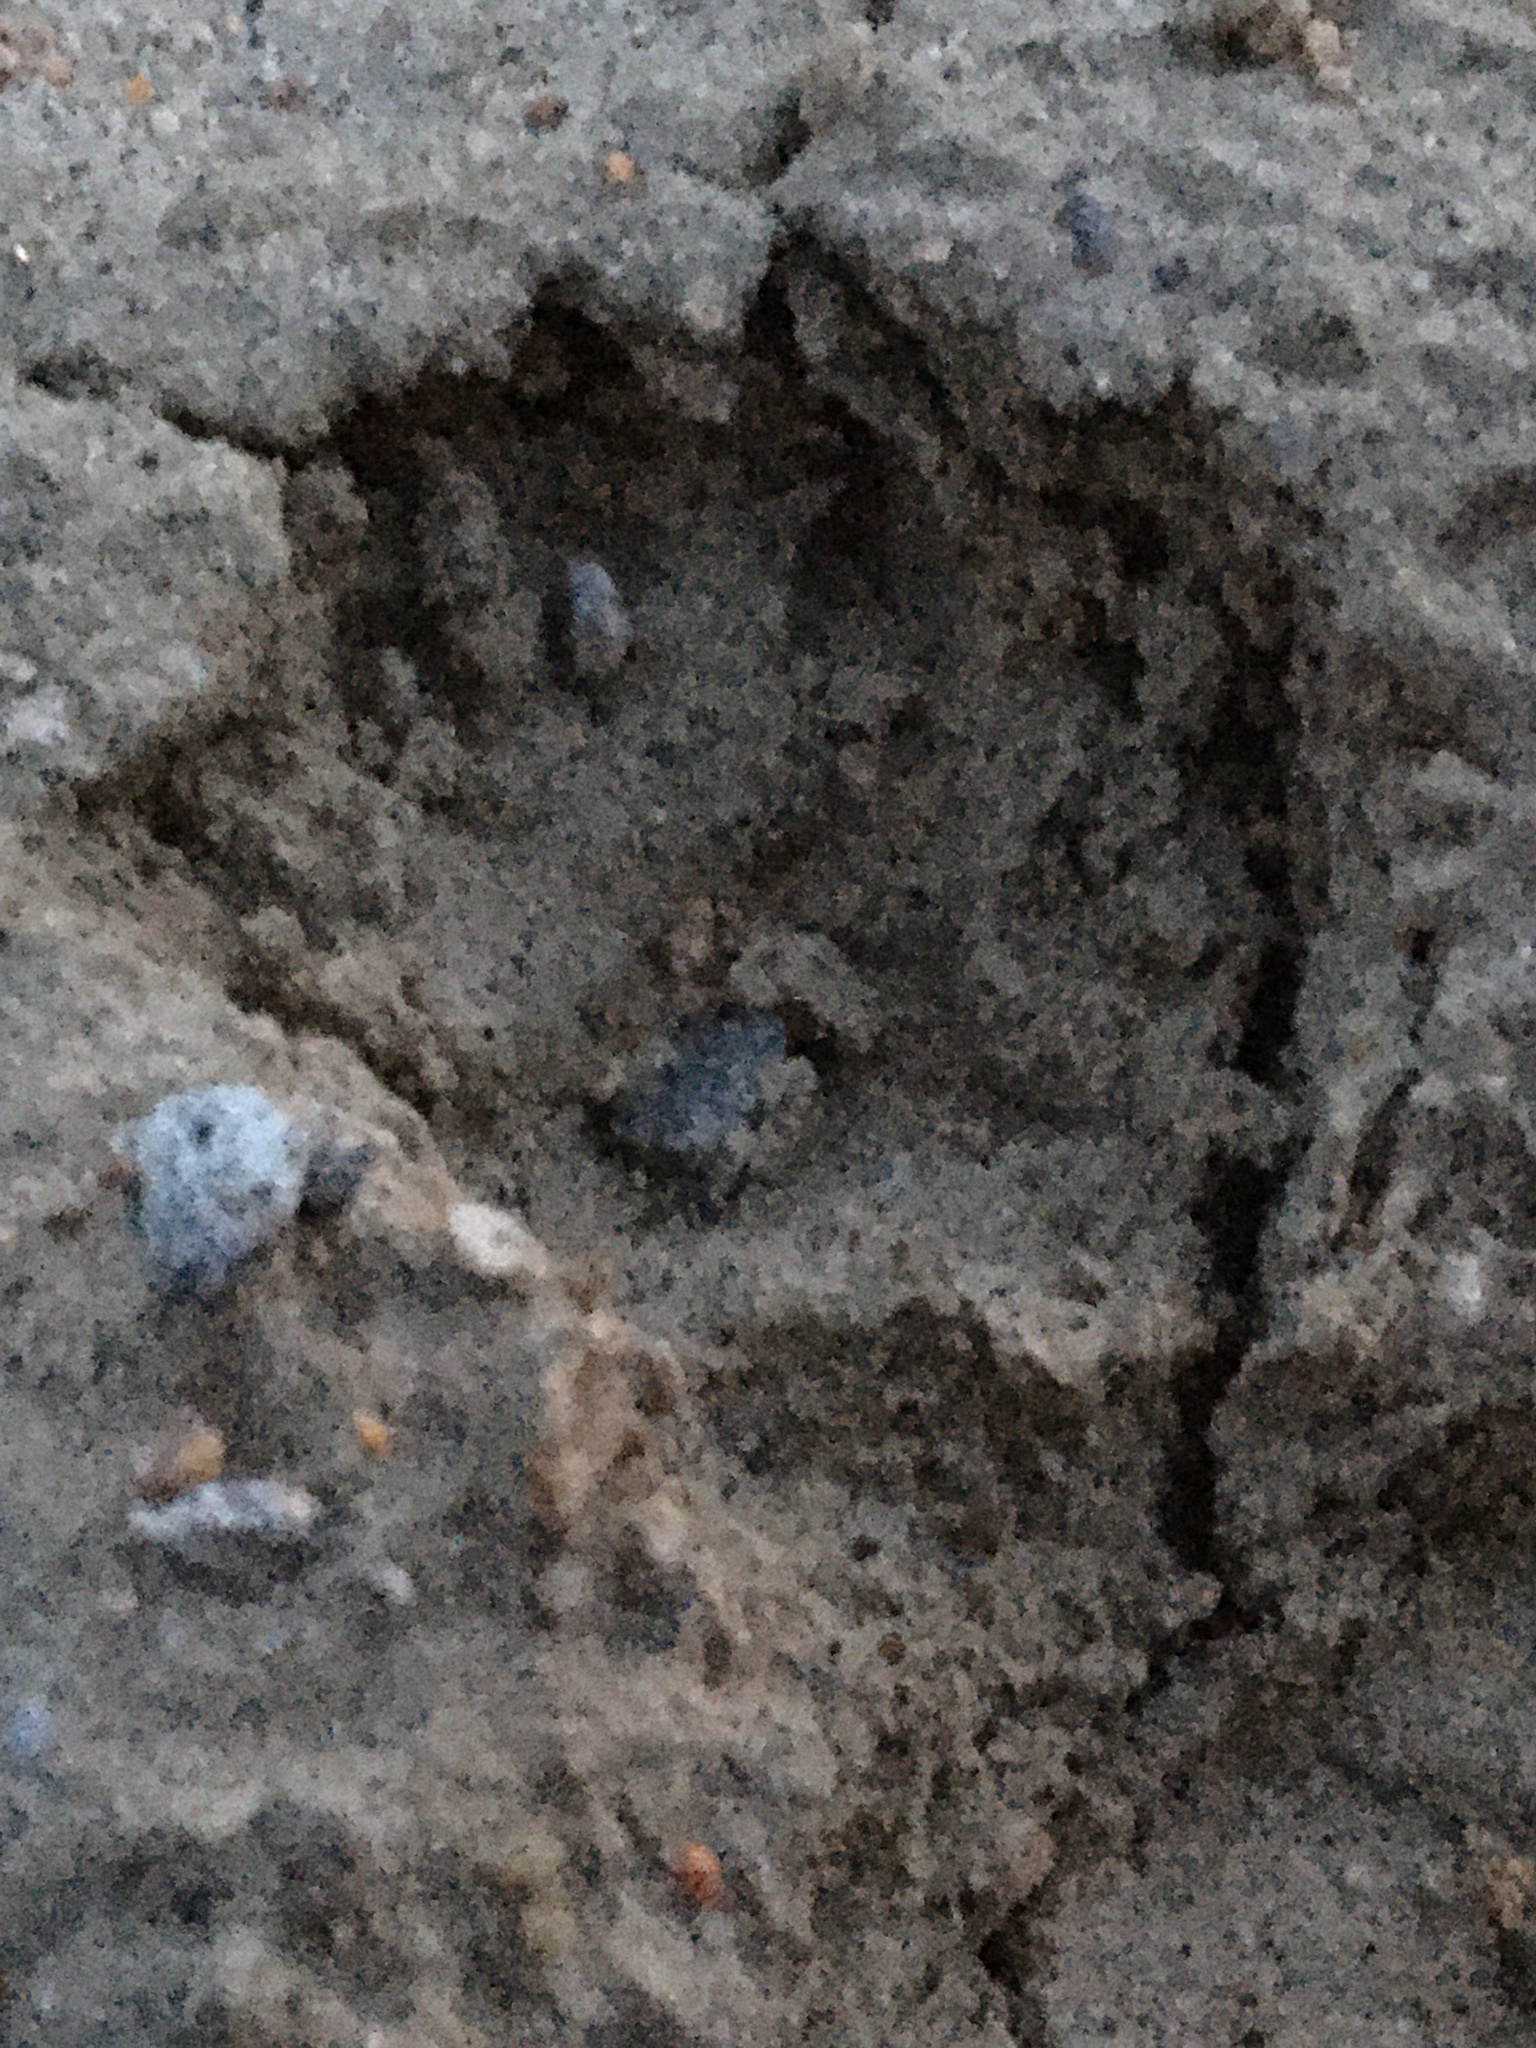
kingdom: Animalia
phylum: Chordata
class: Mammalia
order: Rodentia
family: Sciuridae
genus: Sciurus
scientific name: Sciurus carolinensis
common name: Eastern gray squirrel
